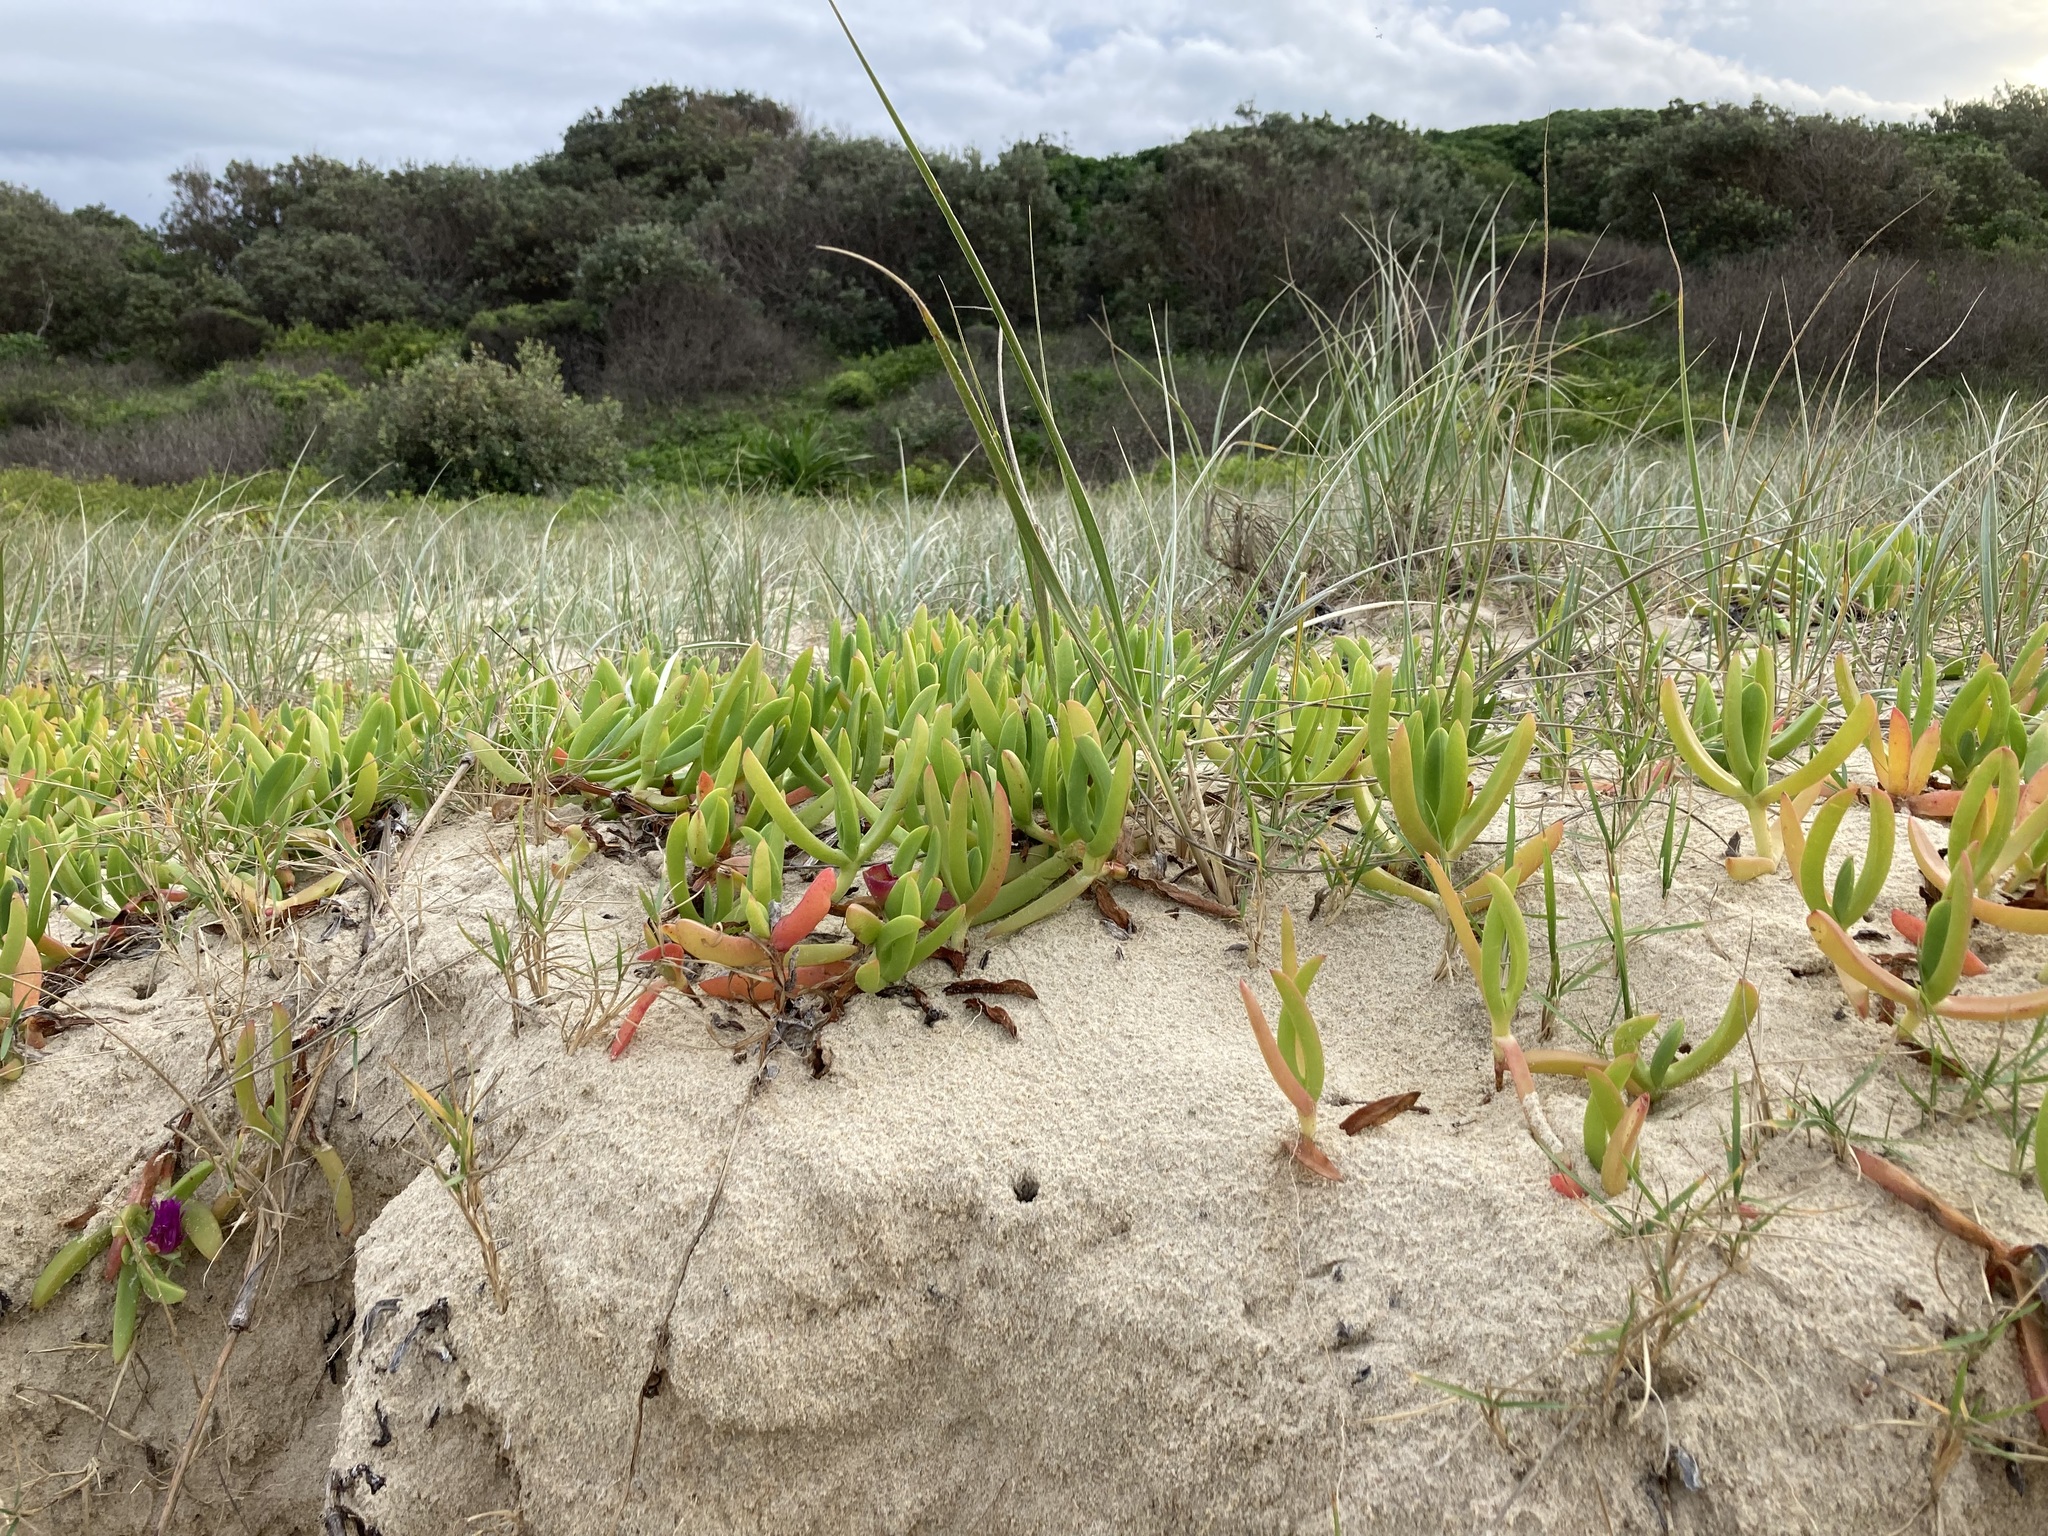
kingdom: Plantae
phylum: Tracheophyta
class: Magnoliopsida
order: Caryophyllales
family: Aizoaceae
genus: Carpobrotus
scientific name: Carpobrotus glaucescens
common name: Angular sea-fig
